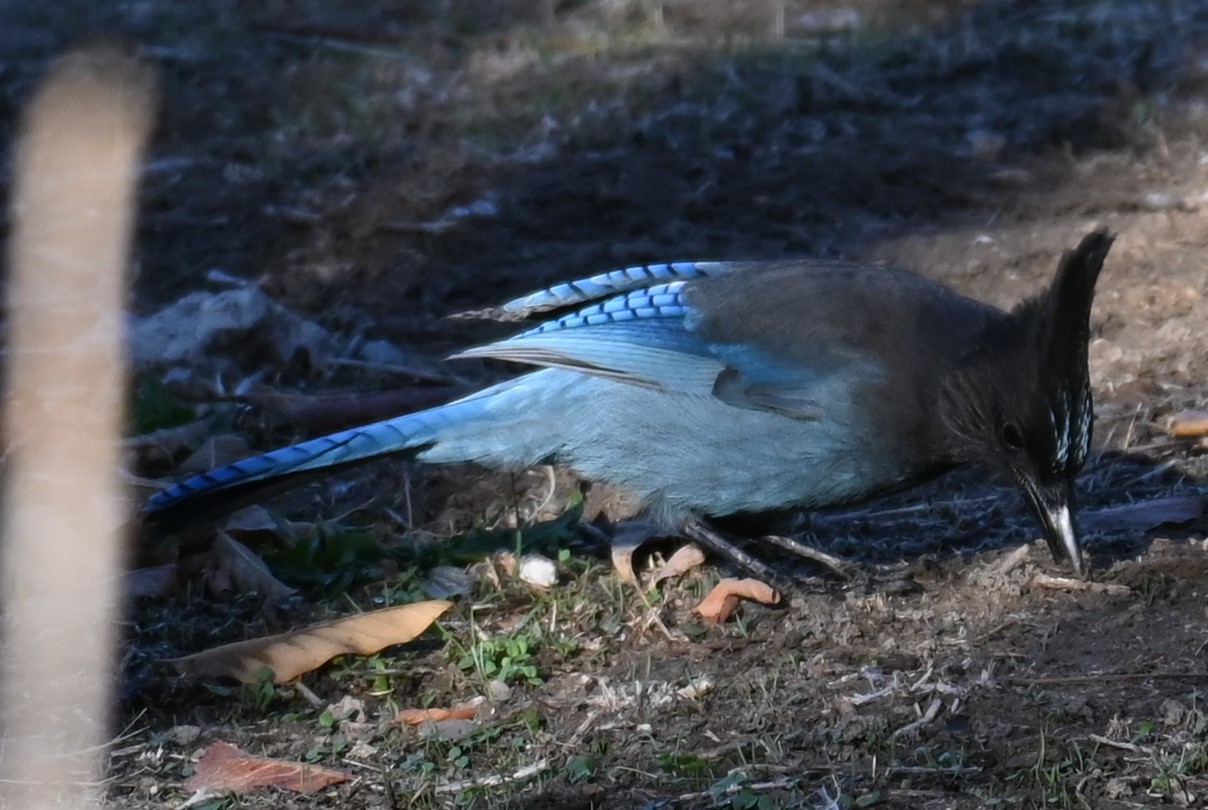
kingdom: Animalia
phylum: Chordata
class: Aves
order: Passeriformes
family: Corvidae
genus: Cyanocitta
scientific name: Cyanocitta stelleri
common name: Steller's jay
